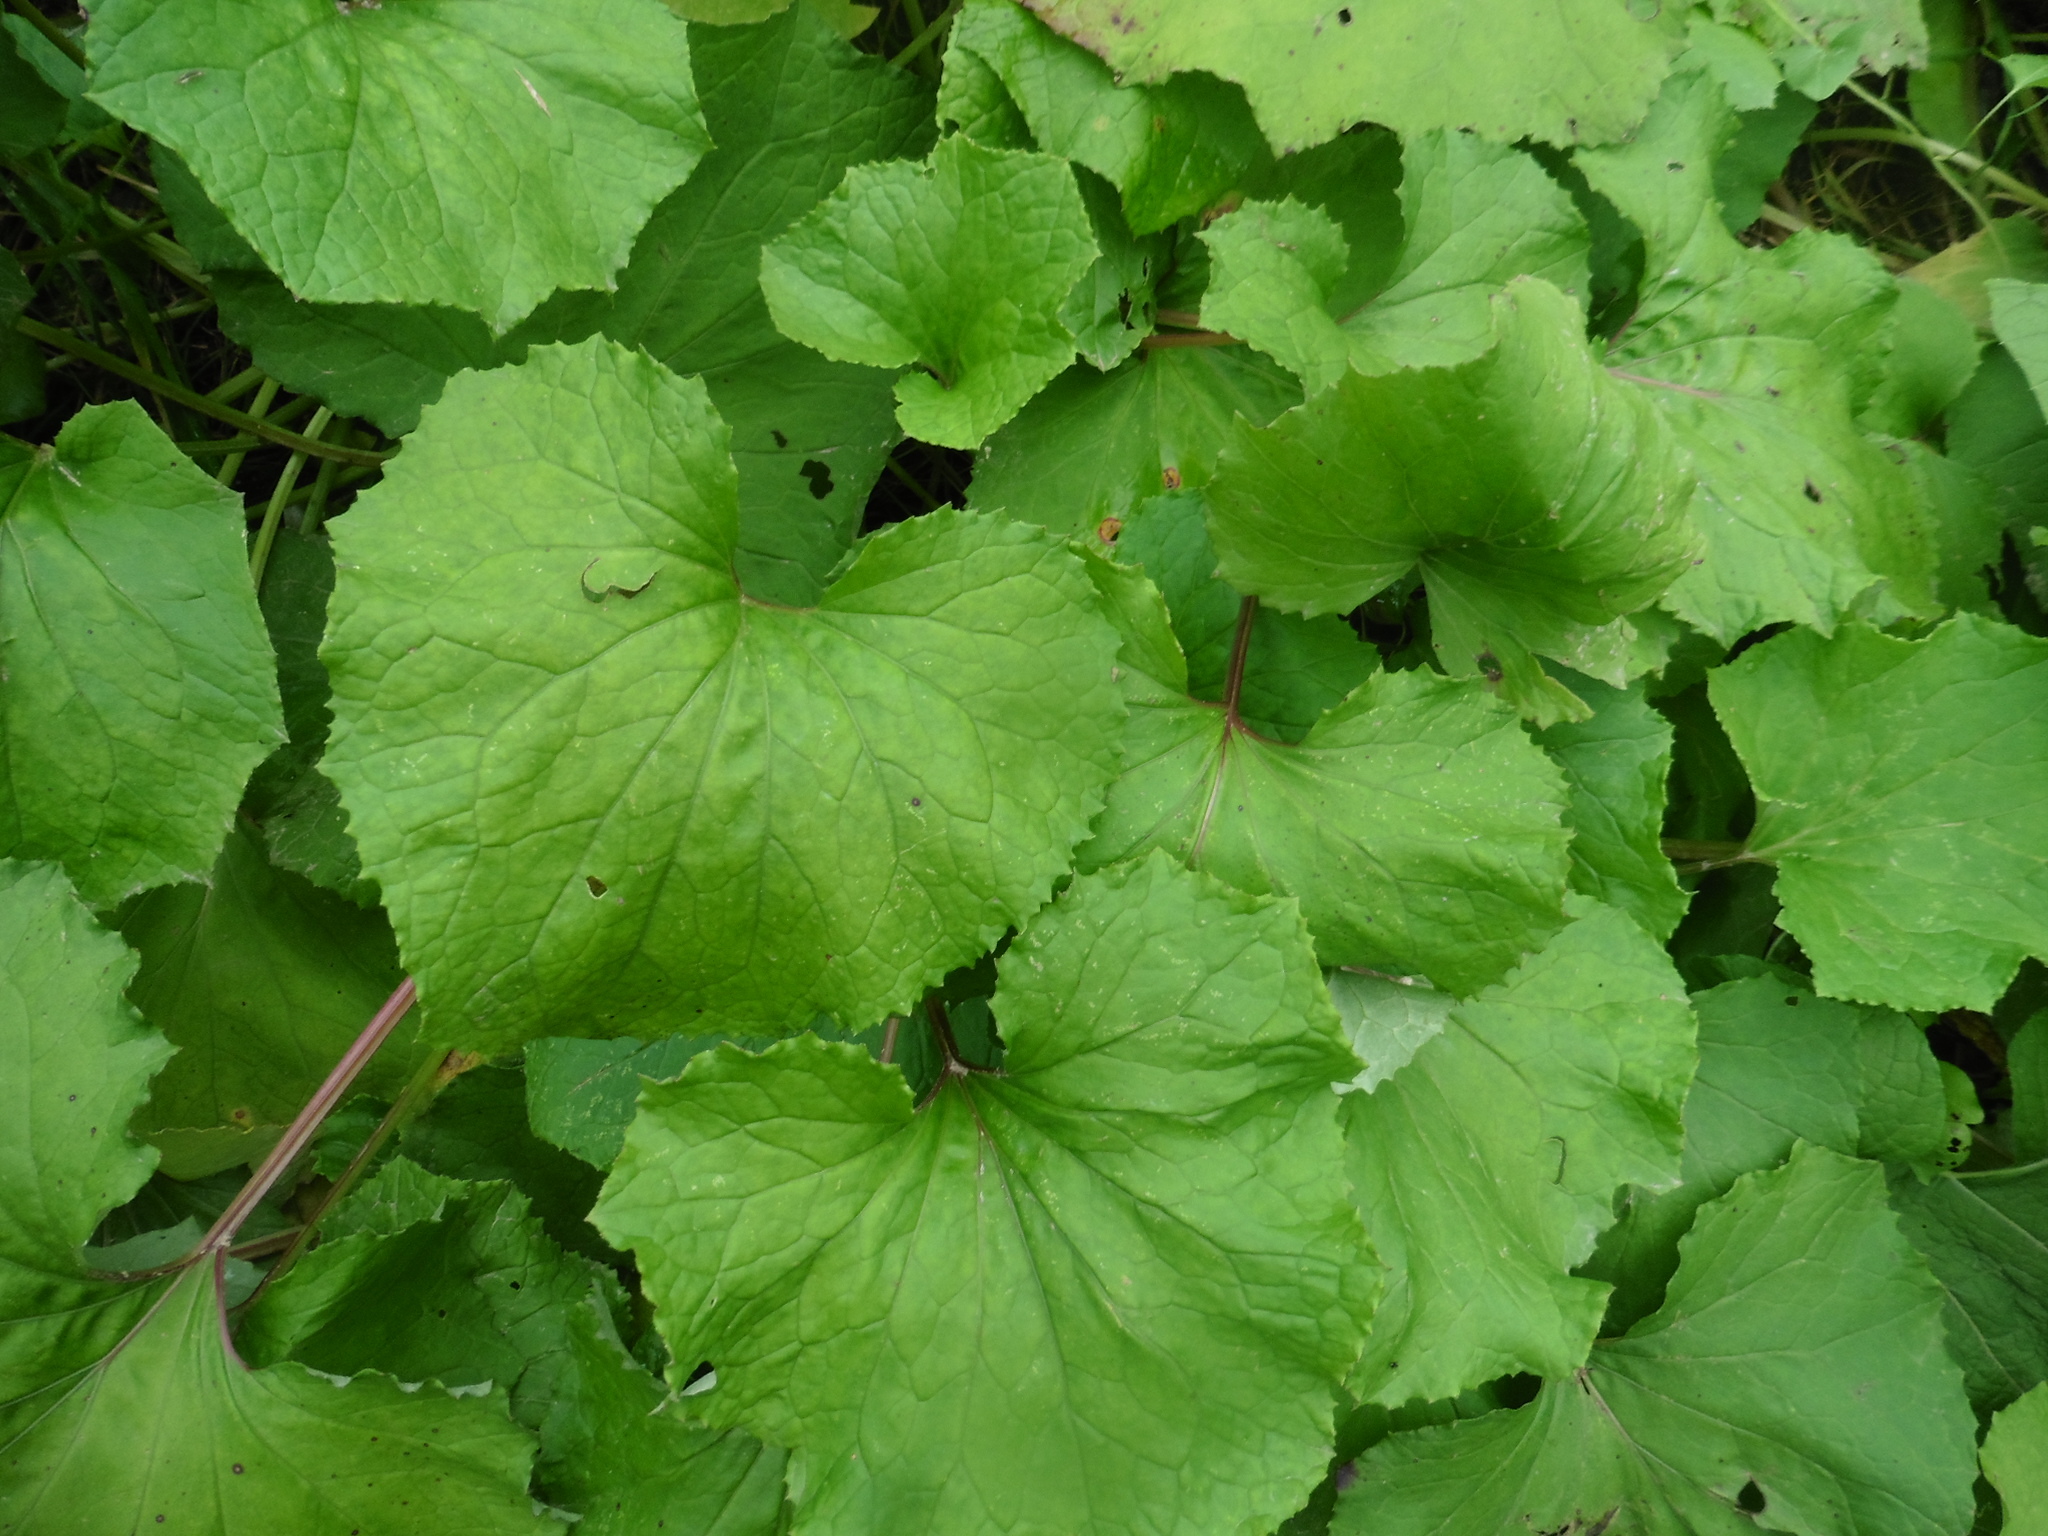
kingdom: Plantae
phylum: Tracheophyta
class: Magnoliopsida
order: Asterales
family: Asteraceae
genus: Tussilago
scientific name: Tussilago farfara
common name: Coltsfoot
